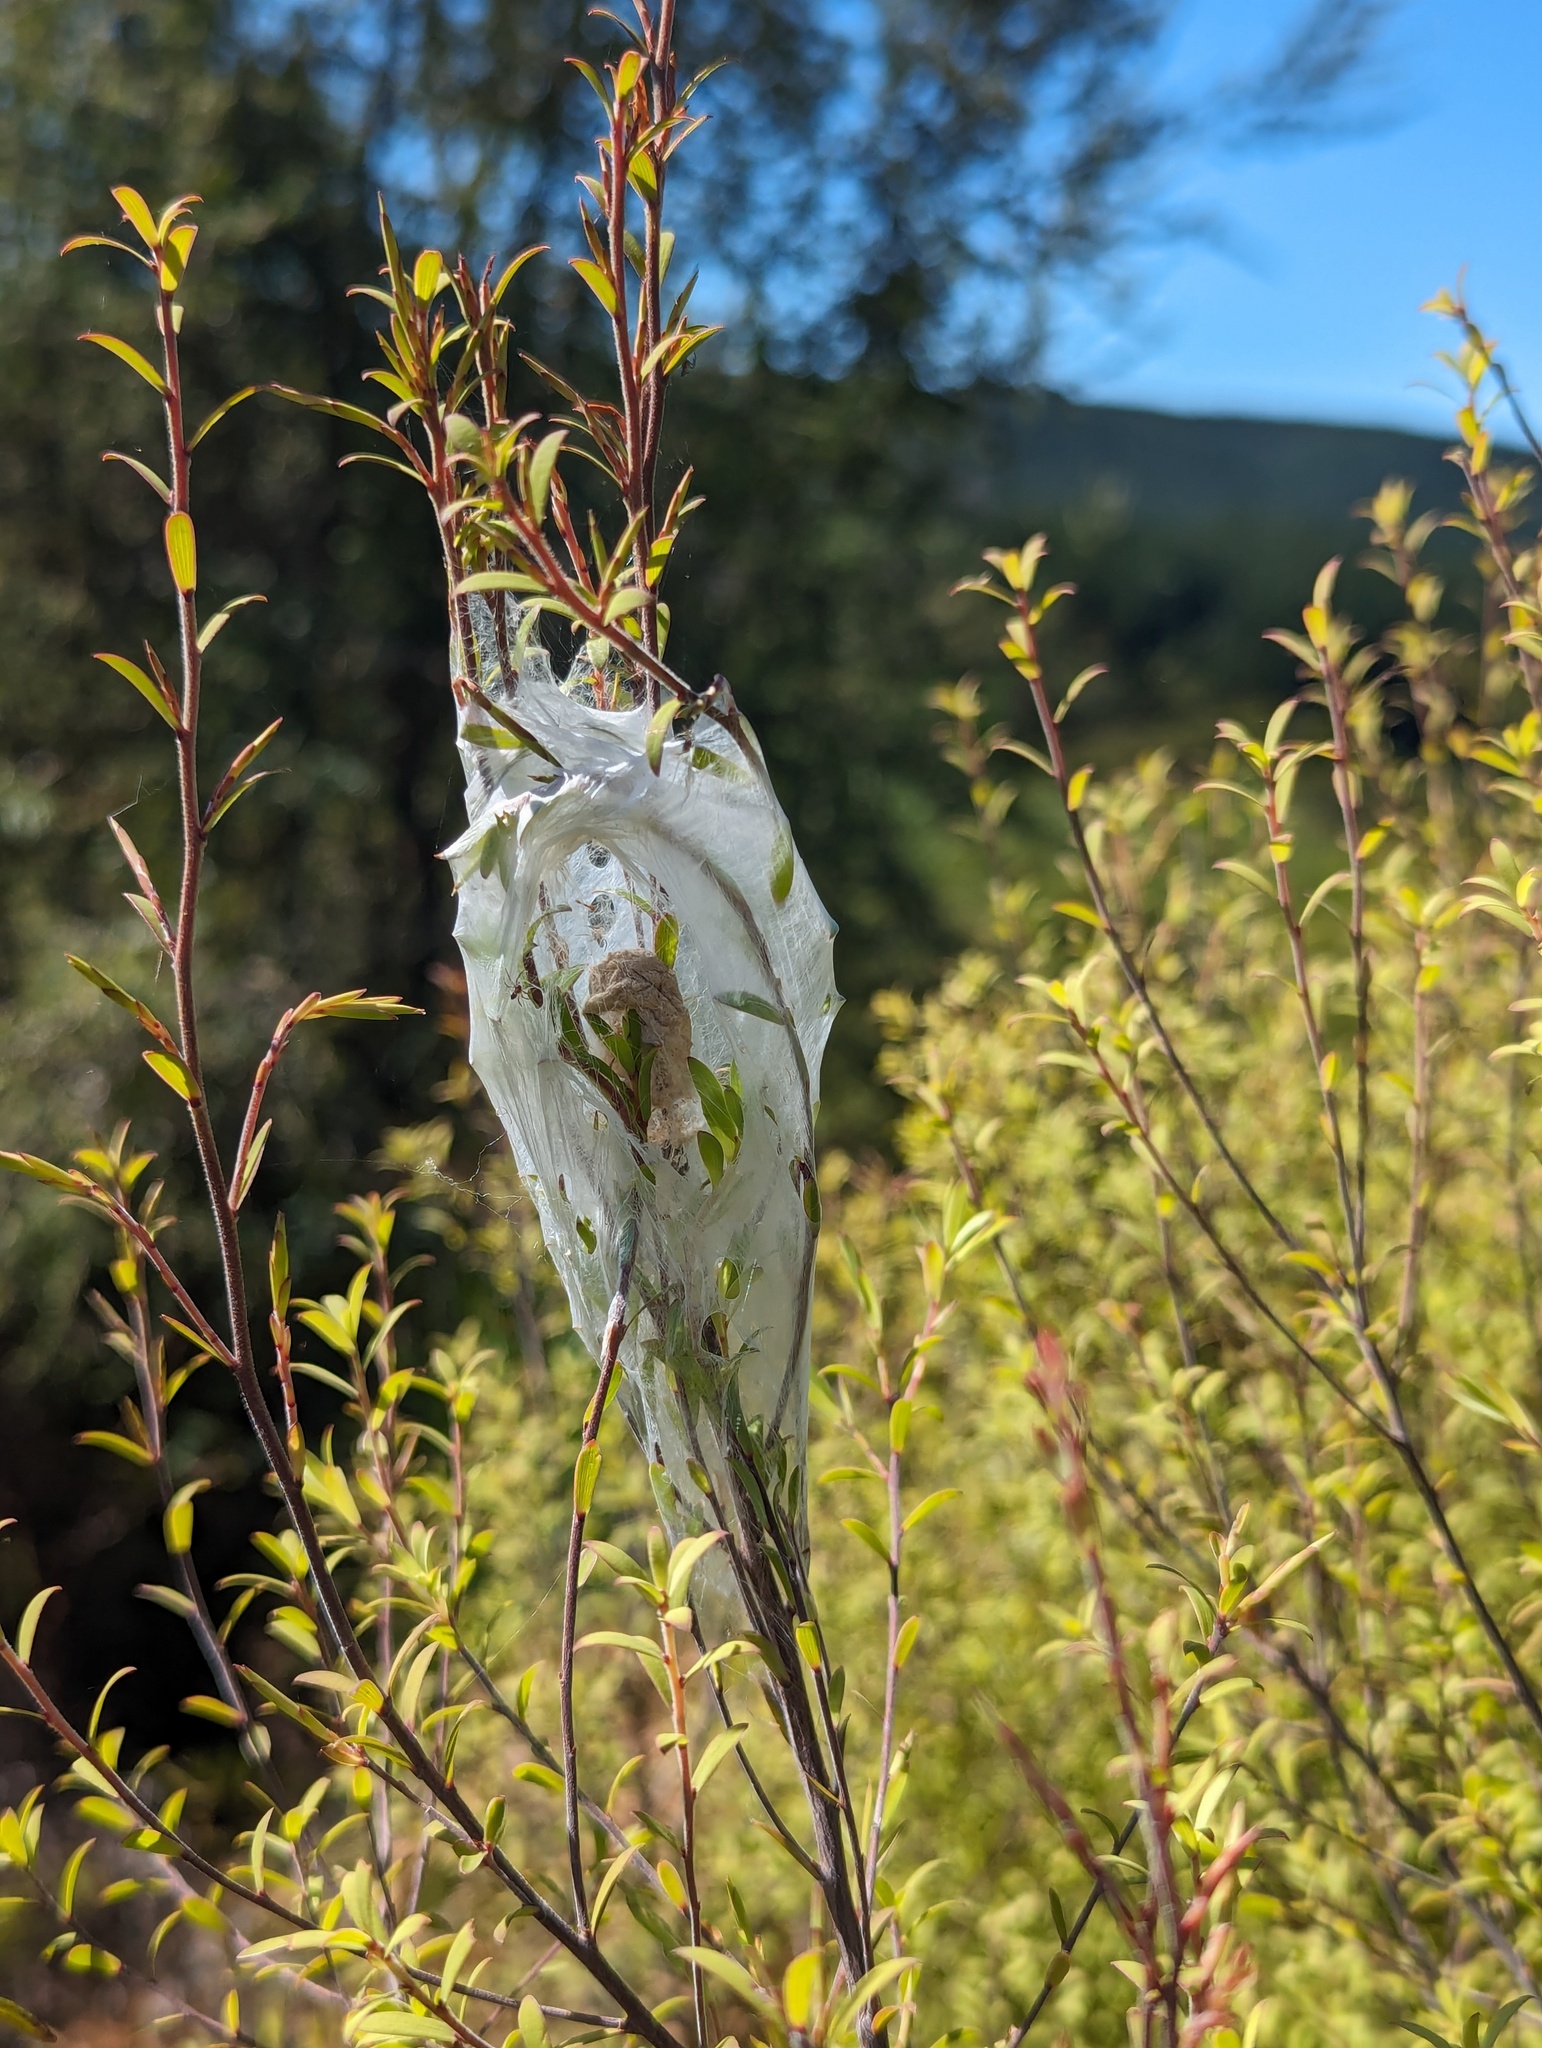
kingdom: Animalia
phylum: Arthropoda
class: Arachnida
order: Araneae
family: Pisauridae
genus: Dolomedes
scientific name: Dolomedes minor
